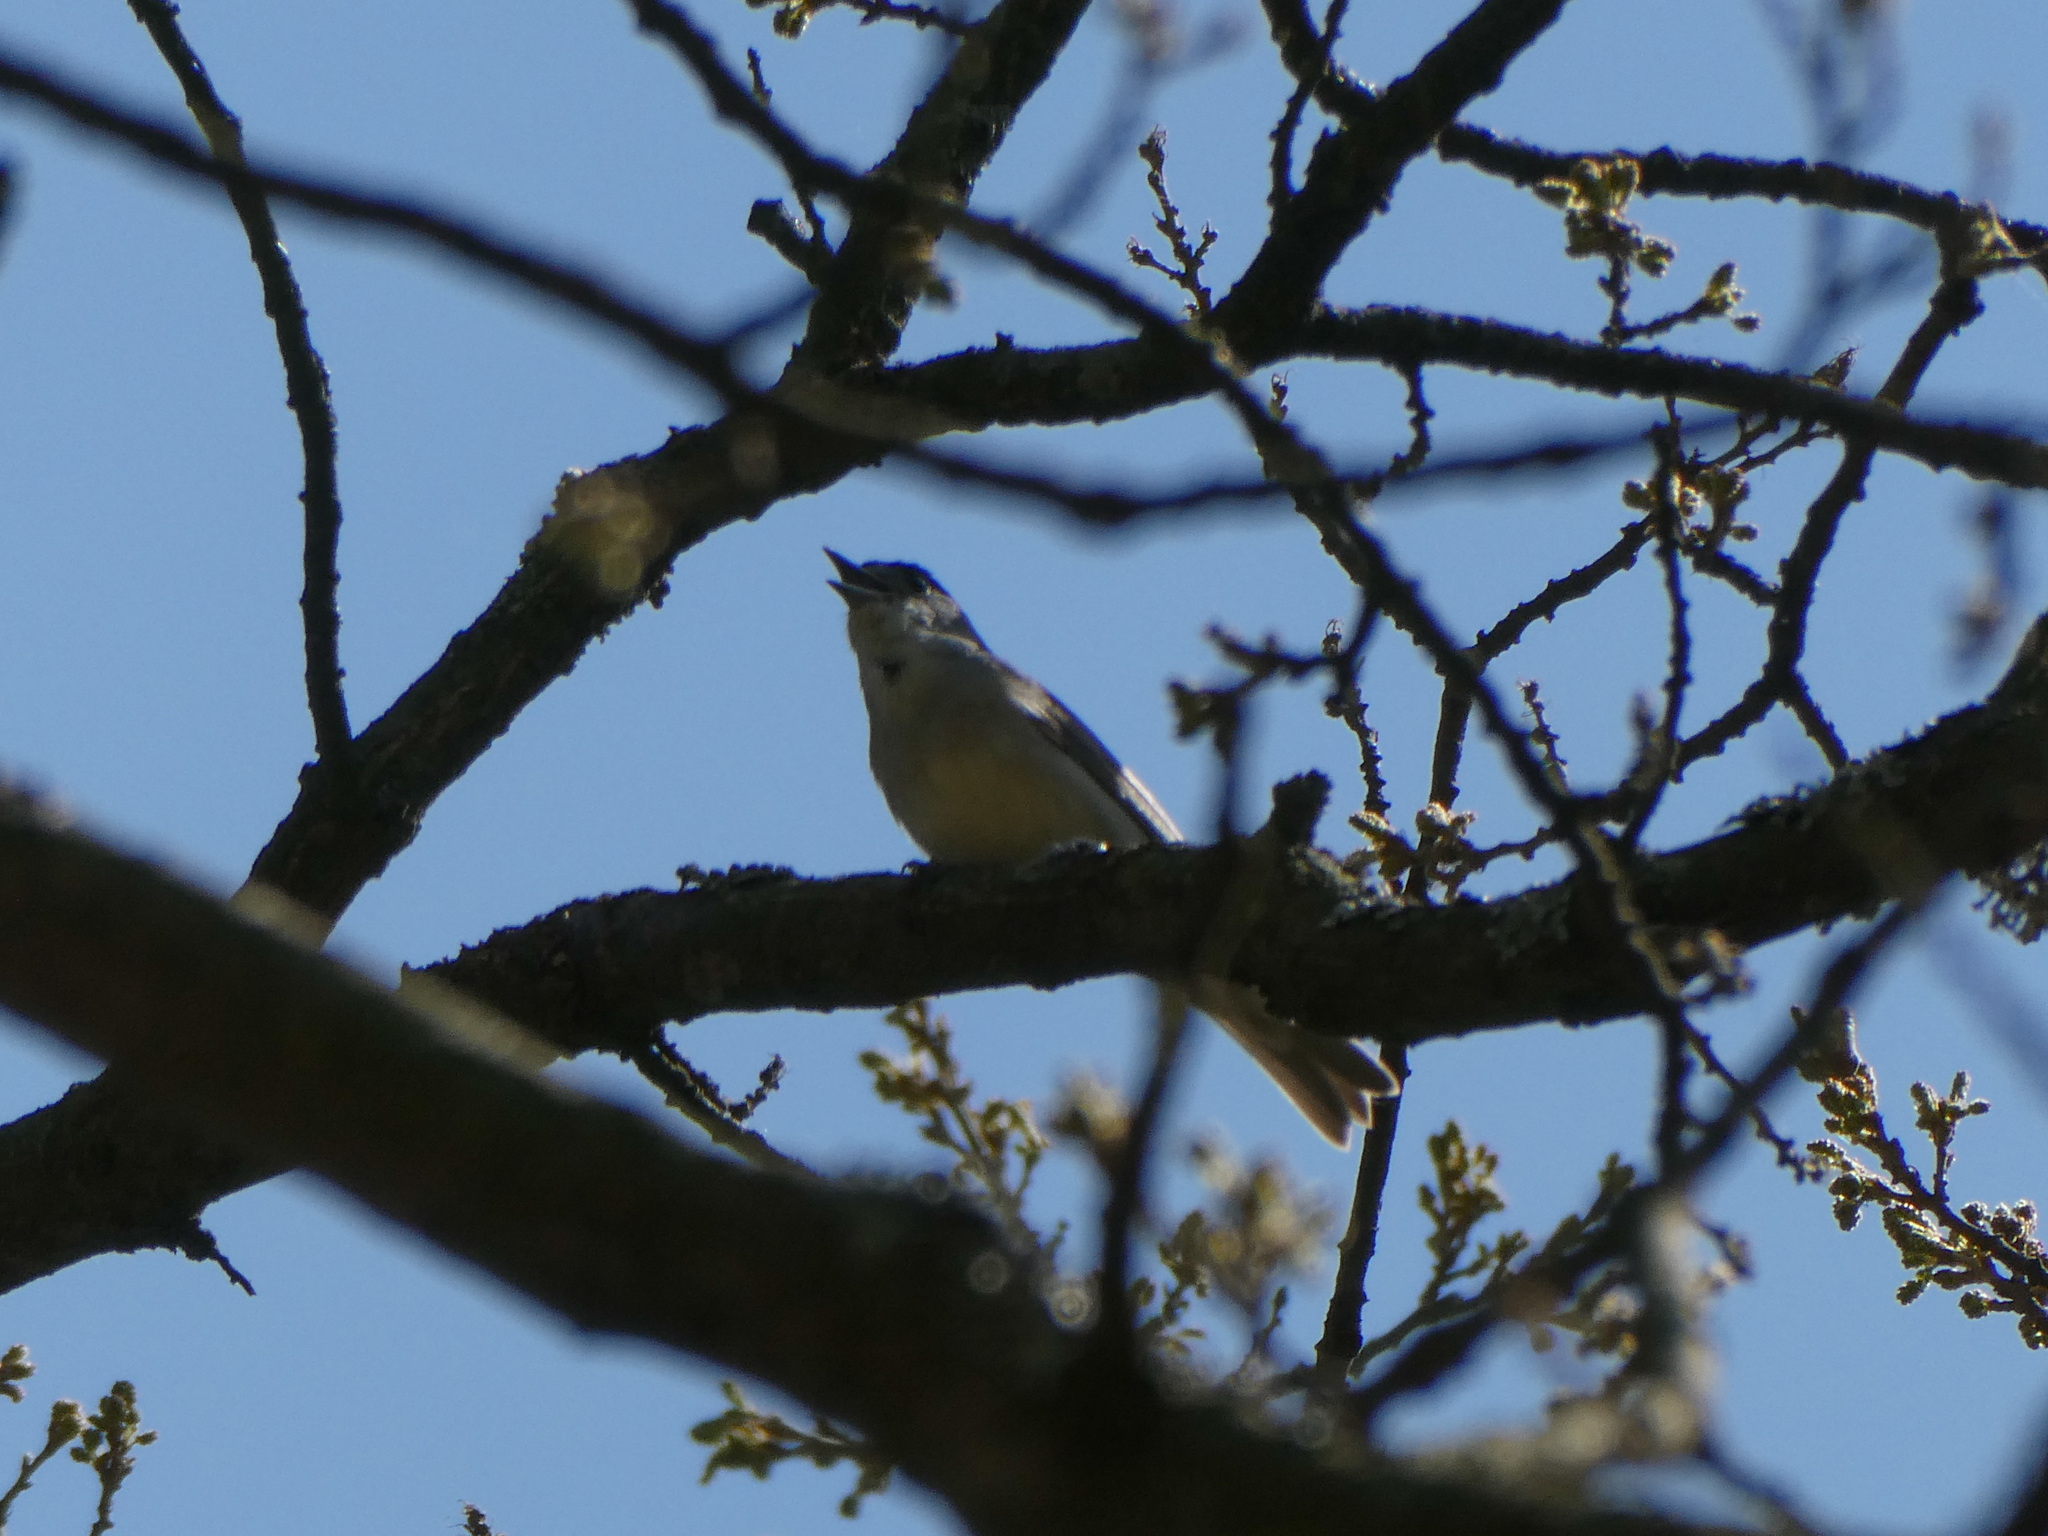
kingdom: Animalia
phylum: Chordata
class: Aves
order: Passeriformes
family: Sylviidae
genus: Sylvia
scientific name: Sylvia atricapilla
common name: Eurasian blackcap
